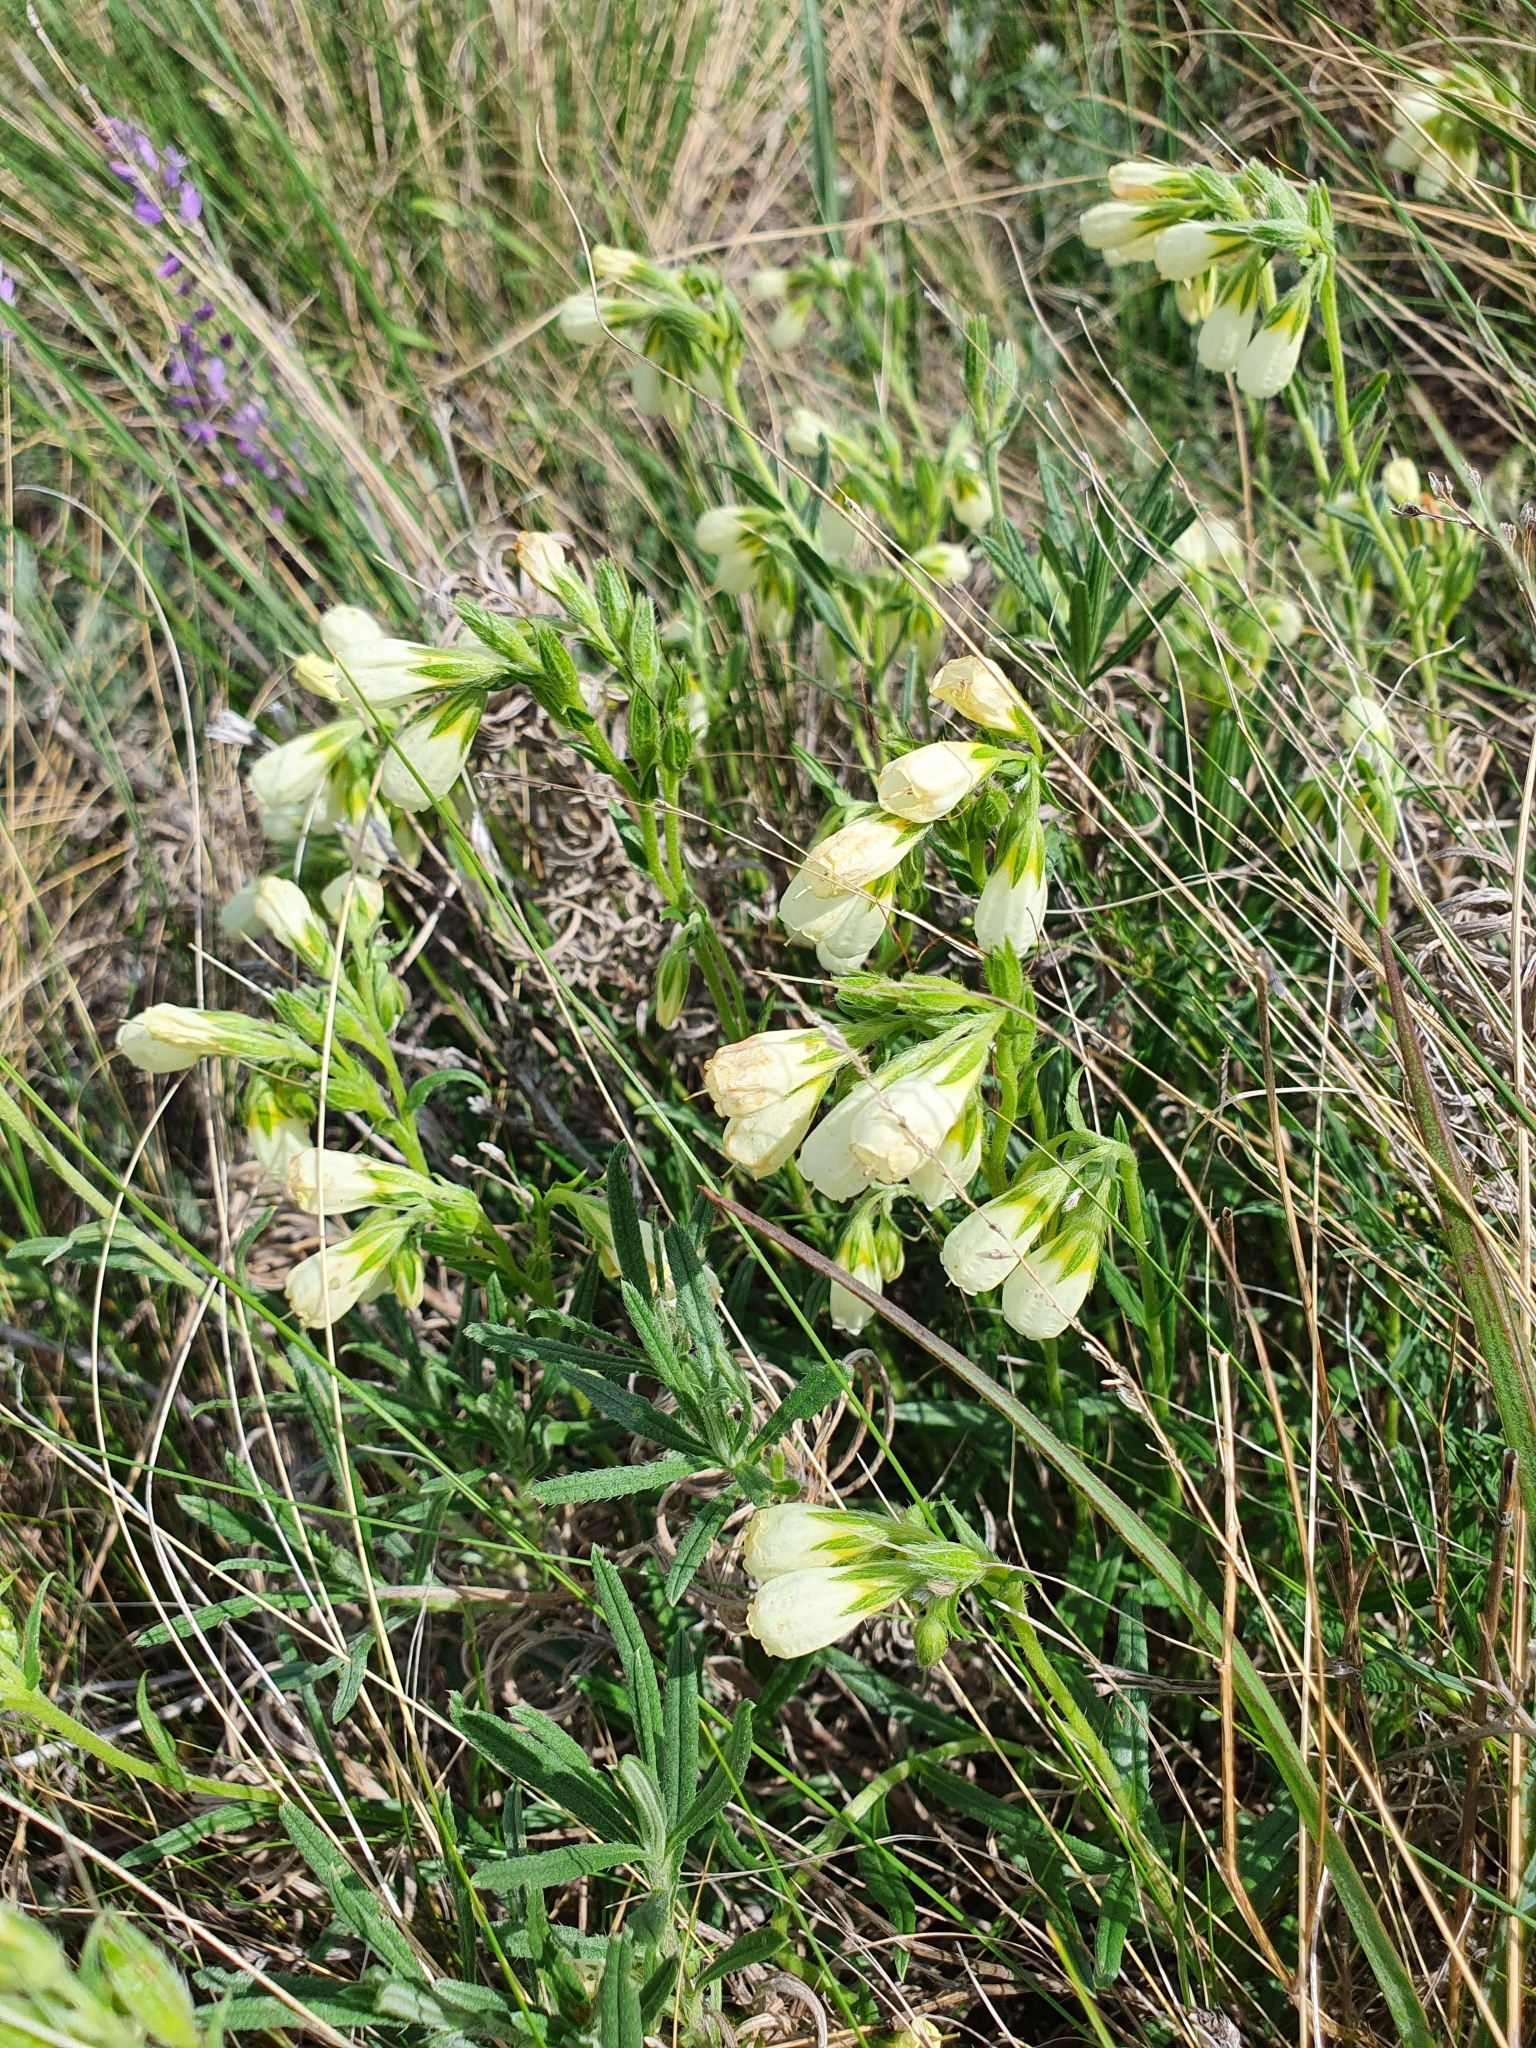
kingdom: Plantae
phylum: Tracheophyta
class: Magnoliopsida
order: Boraginales
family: Boraginaceae
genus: Onosma
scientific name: Onosma simplicissima
